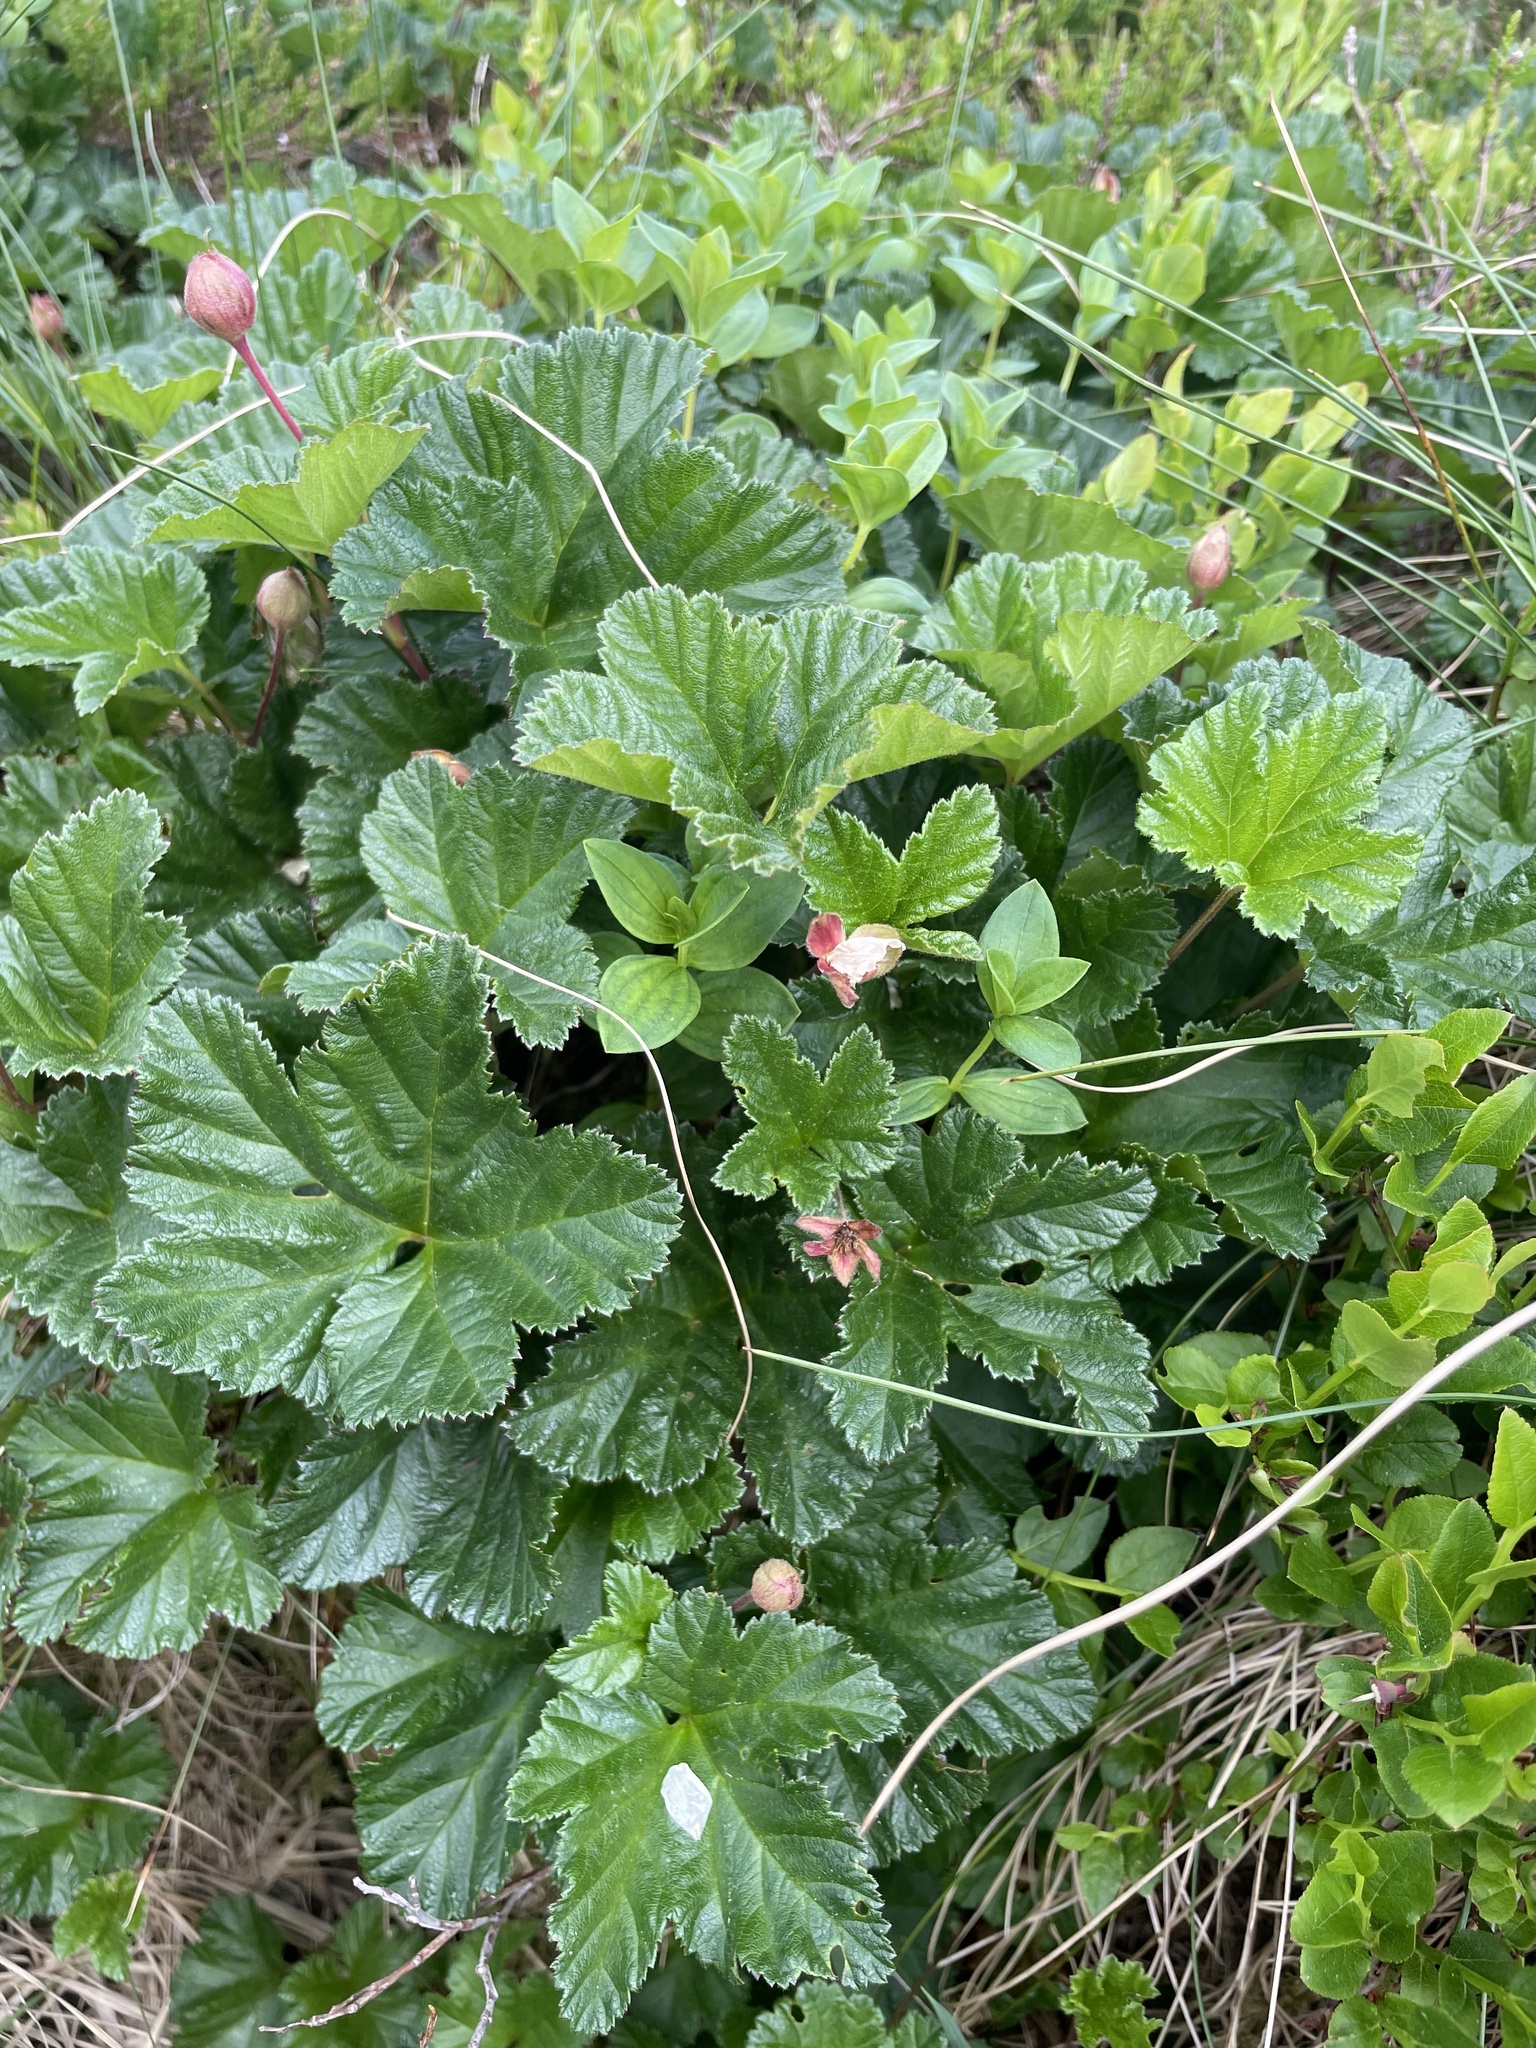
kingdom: Plantae
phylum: Tracheophyta
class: Magnoliopsida
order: Rosales
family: Rosaceae
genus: Rubus
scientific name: Rubus chamaemorus
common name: Cloudberry
